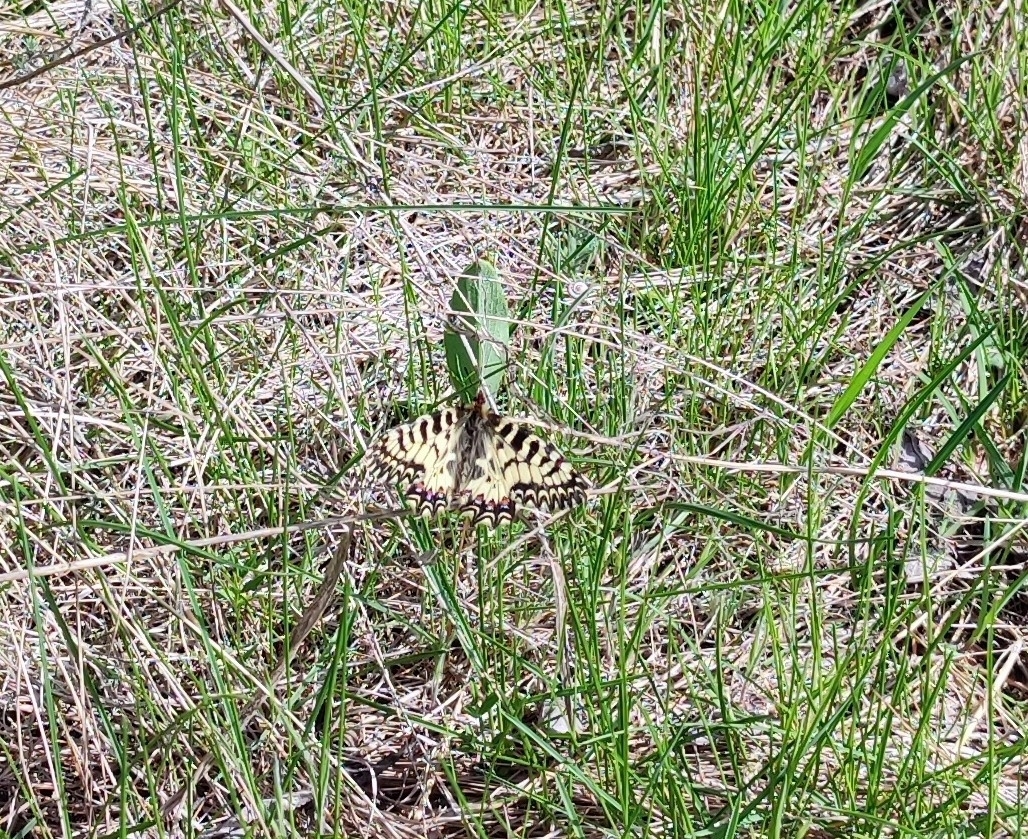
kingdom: Animalia
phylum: Arthropoda
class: Insecta
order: Lepidoptera
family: Papilionidae
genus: Zerynthia
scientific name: Zerynthia polyxena
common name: Southern festoon
